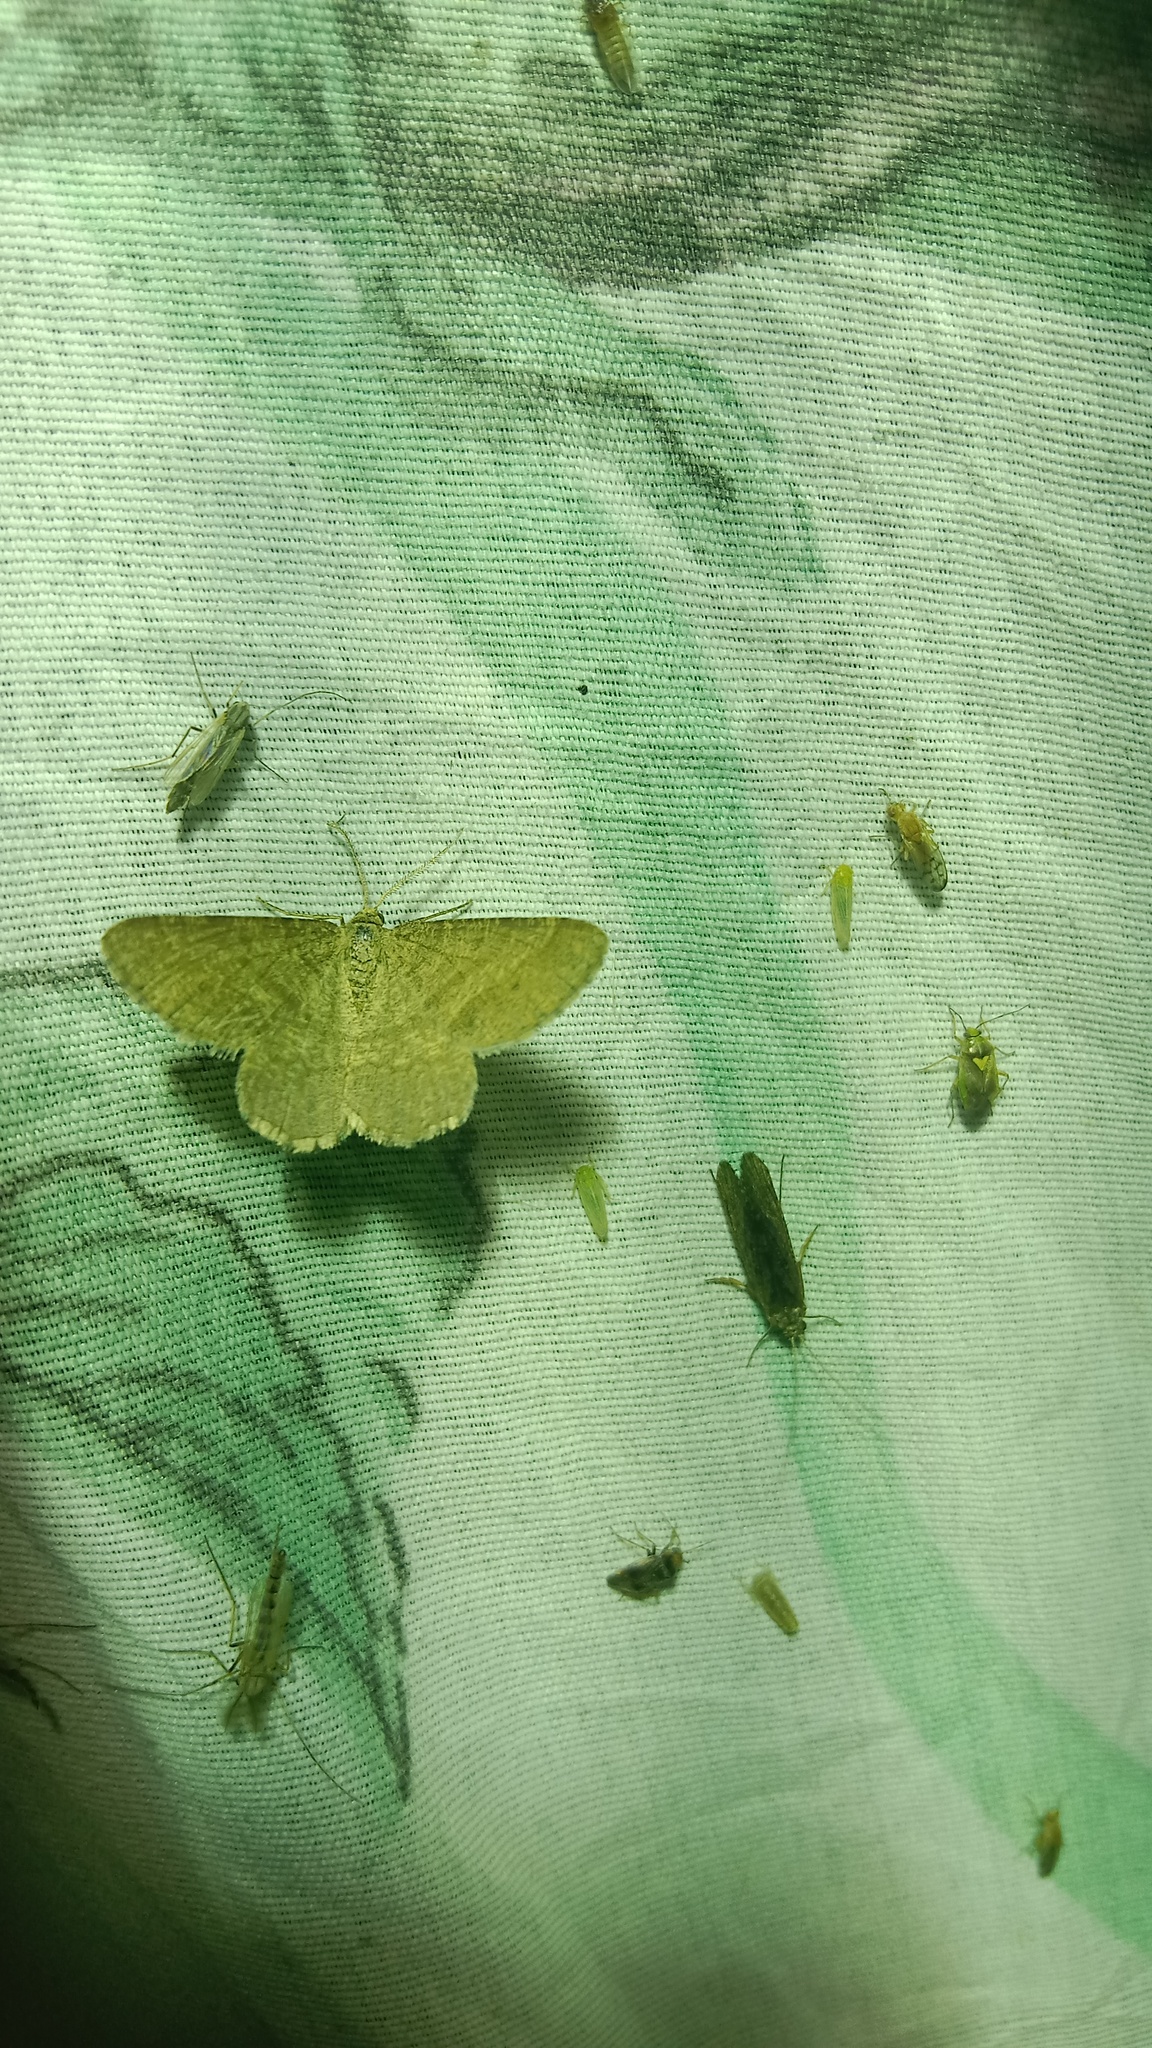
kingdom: Animalia
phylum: Arthropoda
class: Insecta
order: Lepidoptera
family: Geometridae
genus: Tephrina
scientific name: Tephrina murinaria
